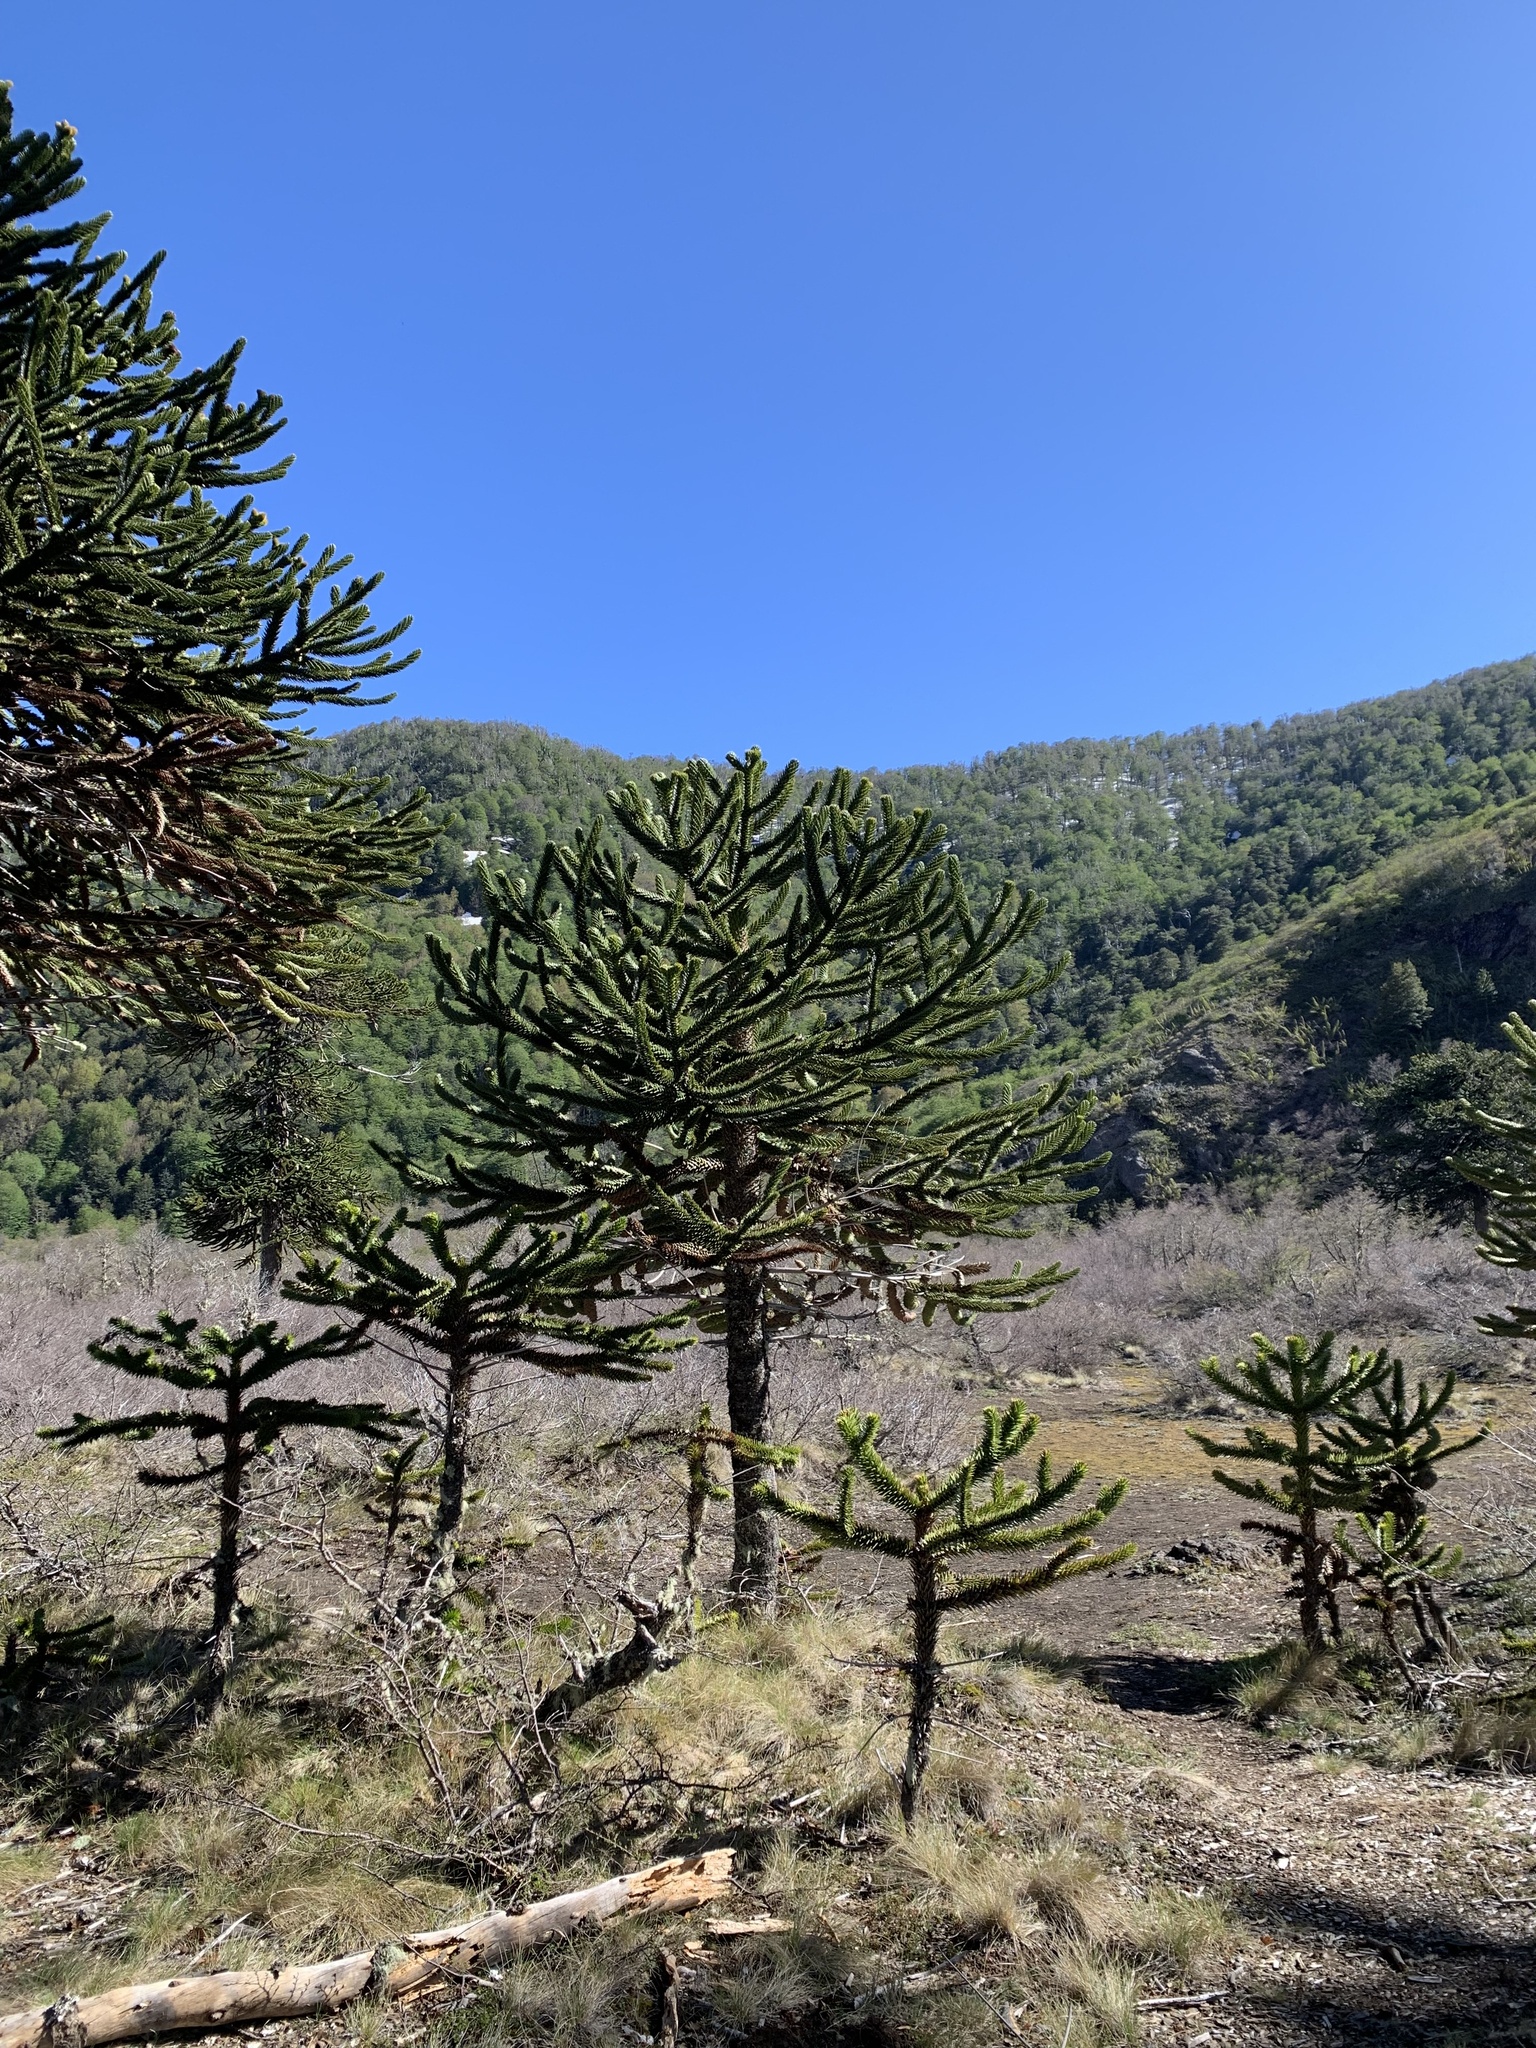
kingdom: Plantae
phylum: Tracheophyta
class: Pinopsida
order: Pinales
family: Araucariaceae
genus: Araucaria
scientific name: Araucaria araucana
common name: Monkey-puzzle
